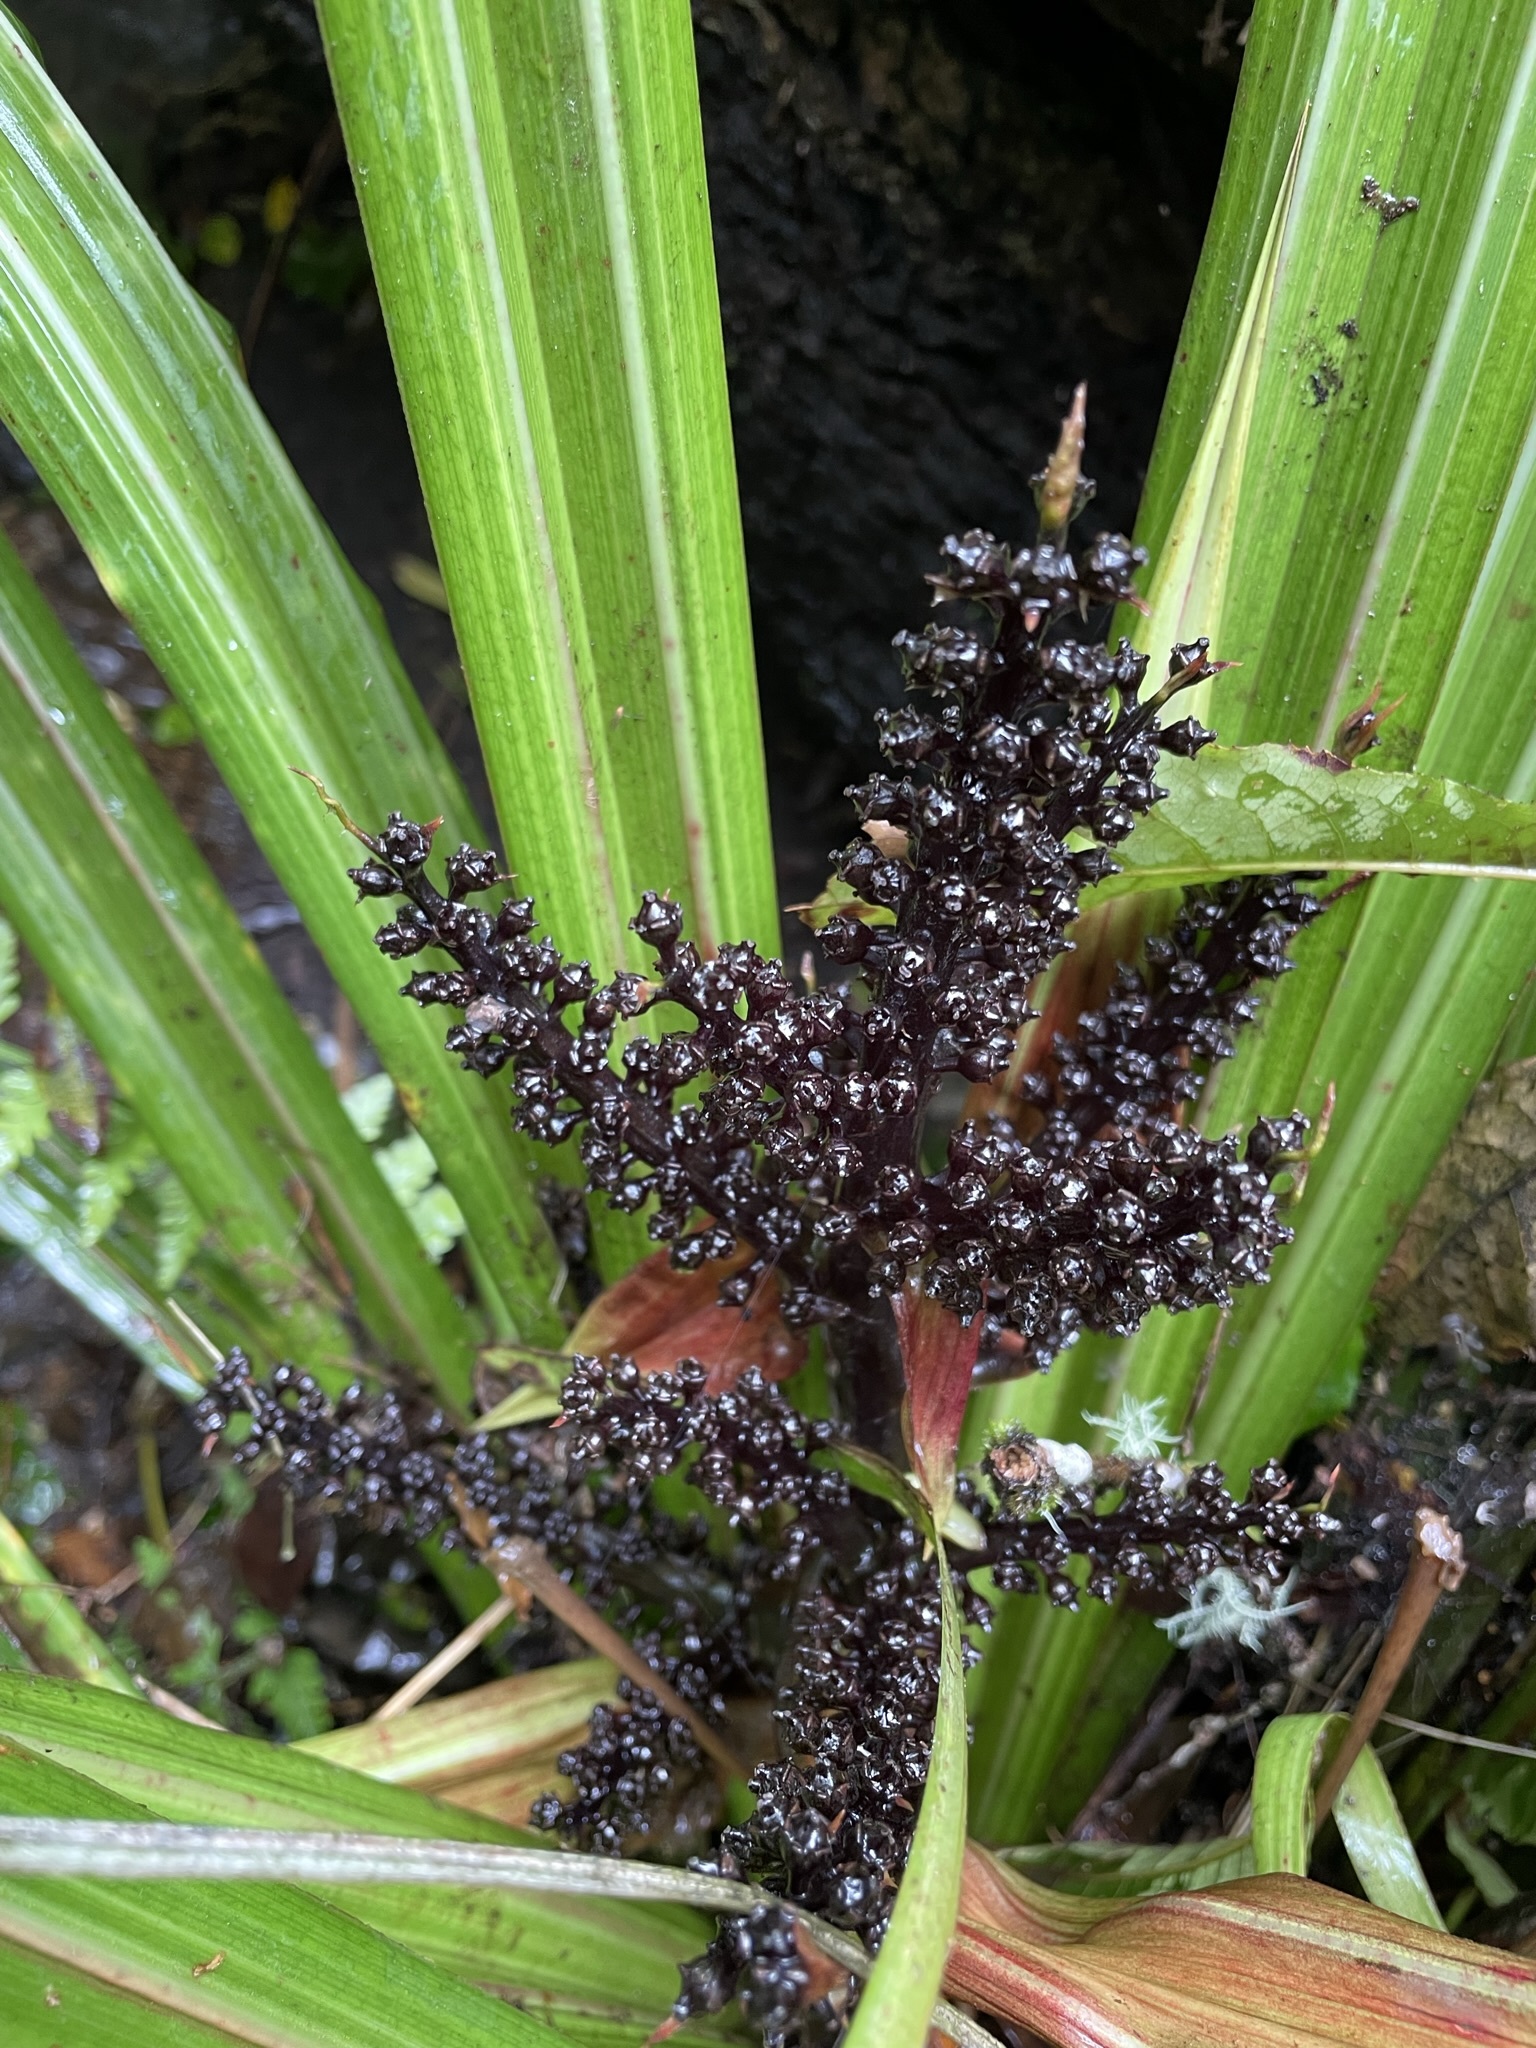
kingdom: Plantae
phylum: Tracheophyta
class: Liliopsida
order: Asparagales
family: Asteliaceae
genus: Astelia
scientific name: Astelia fragrans
